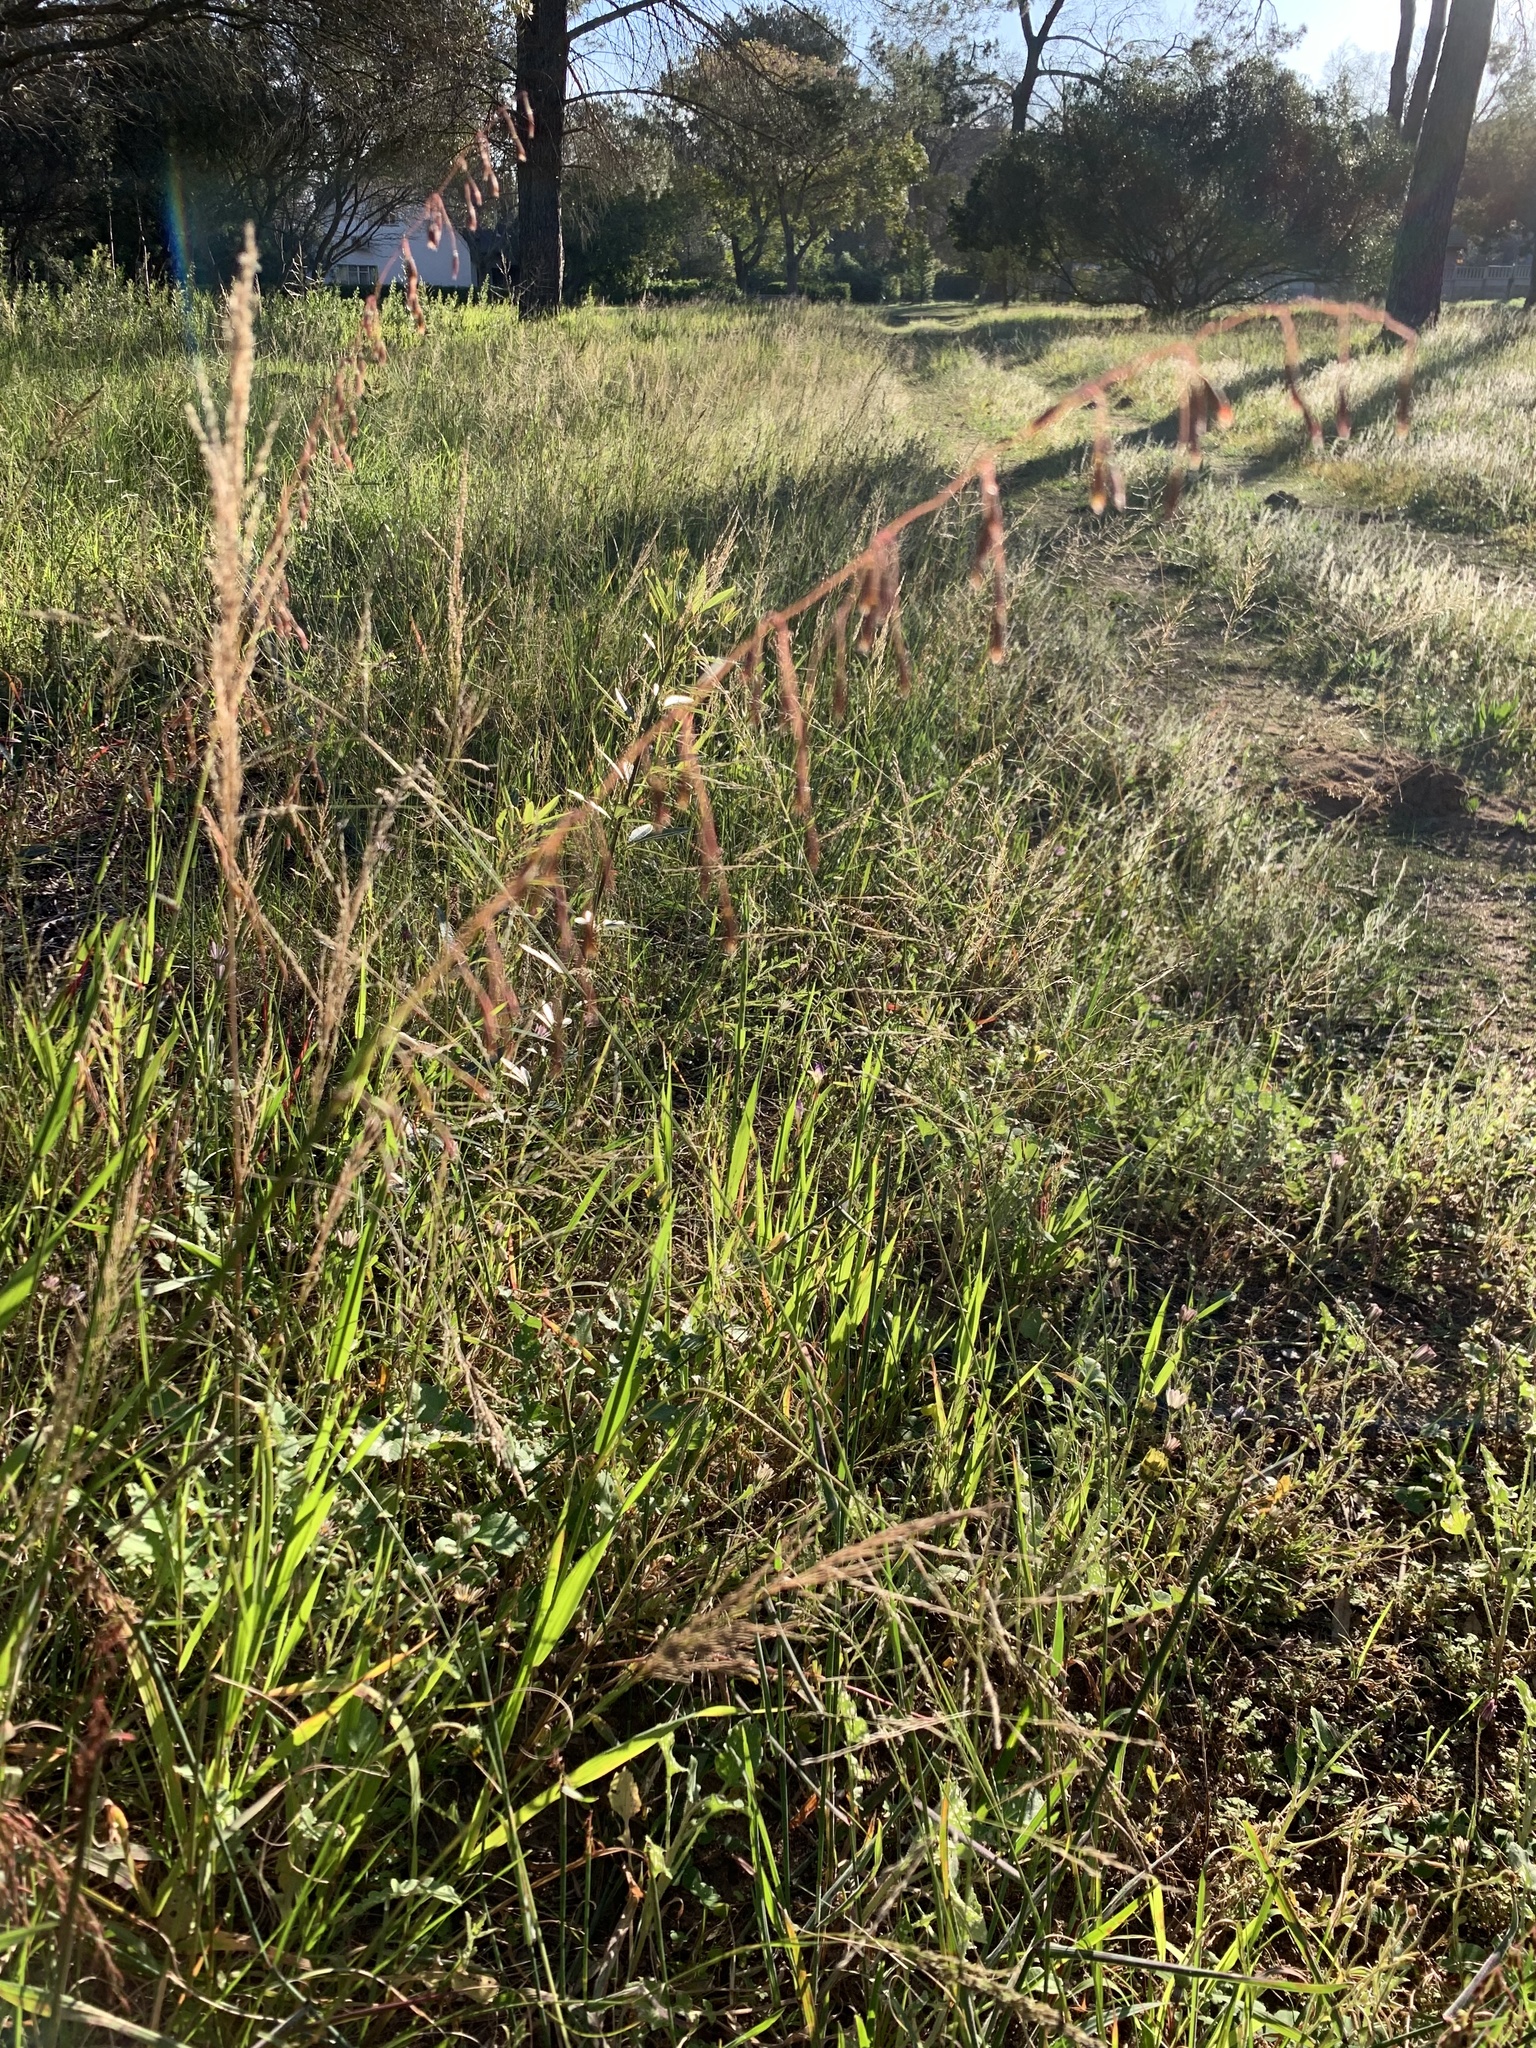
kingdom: Plantae
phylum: Tracheophyta
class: Liliopsida
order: Poales
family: Poaceae
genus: Ehrharta
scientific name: Ehrharta calycina
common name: Perennial veldtgrass
